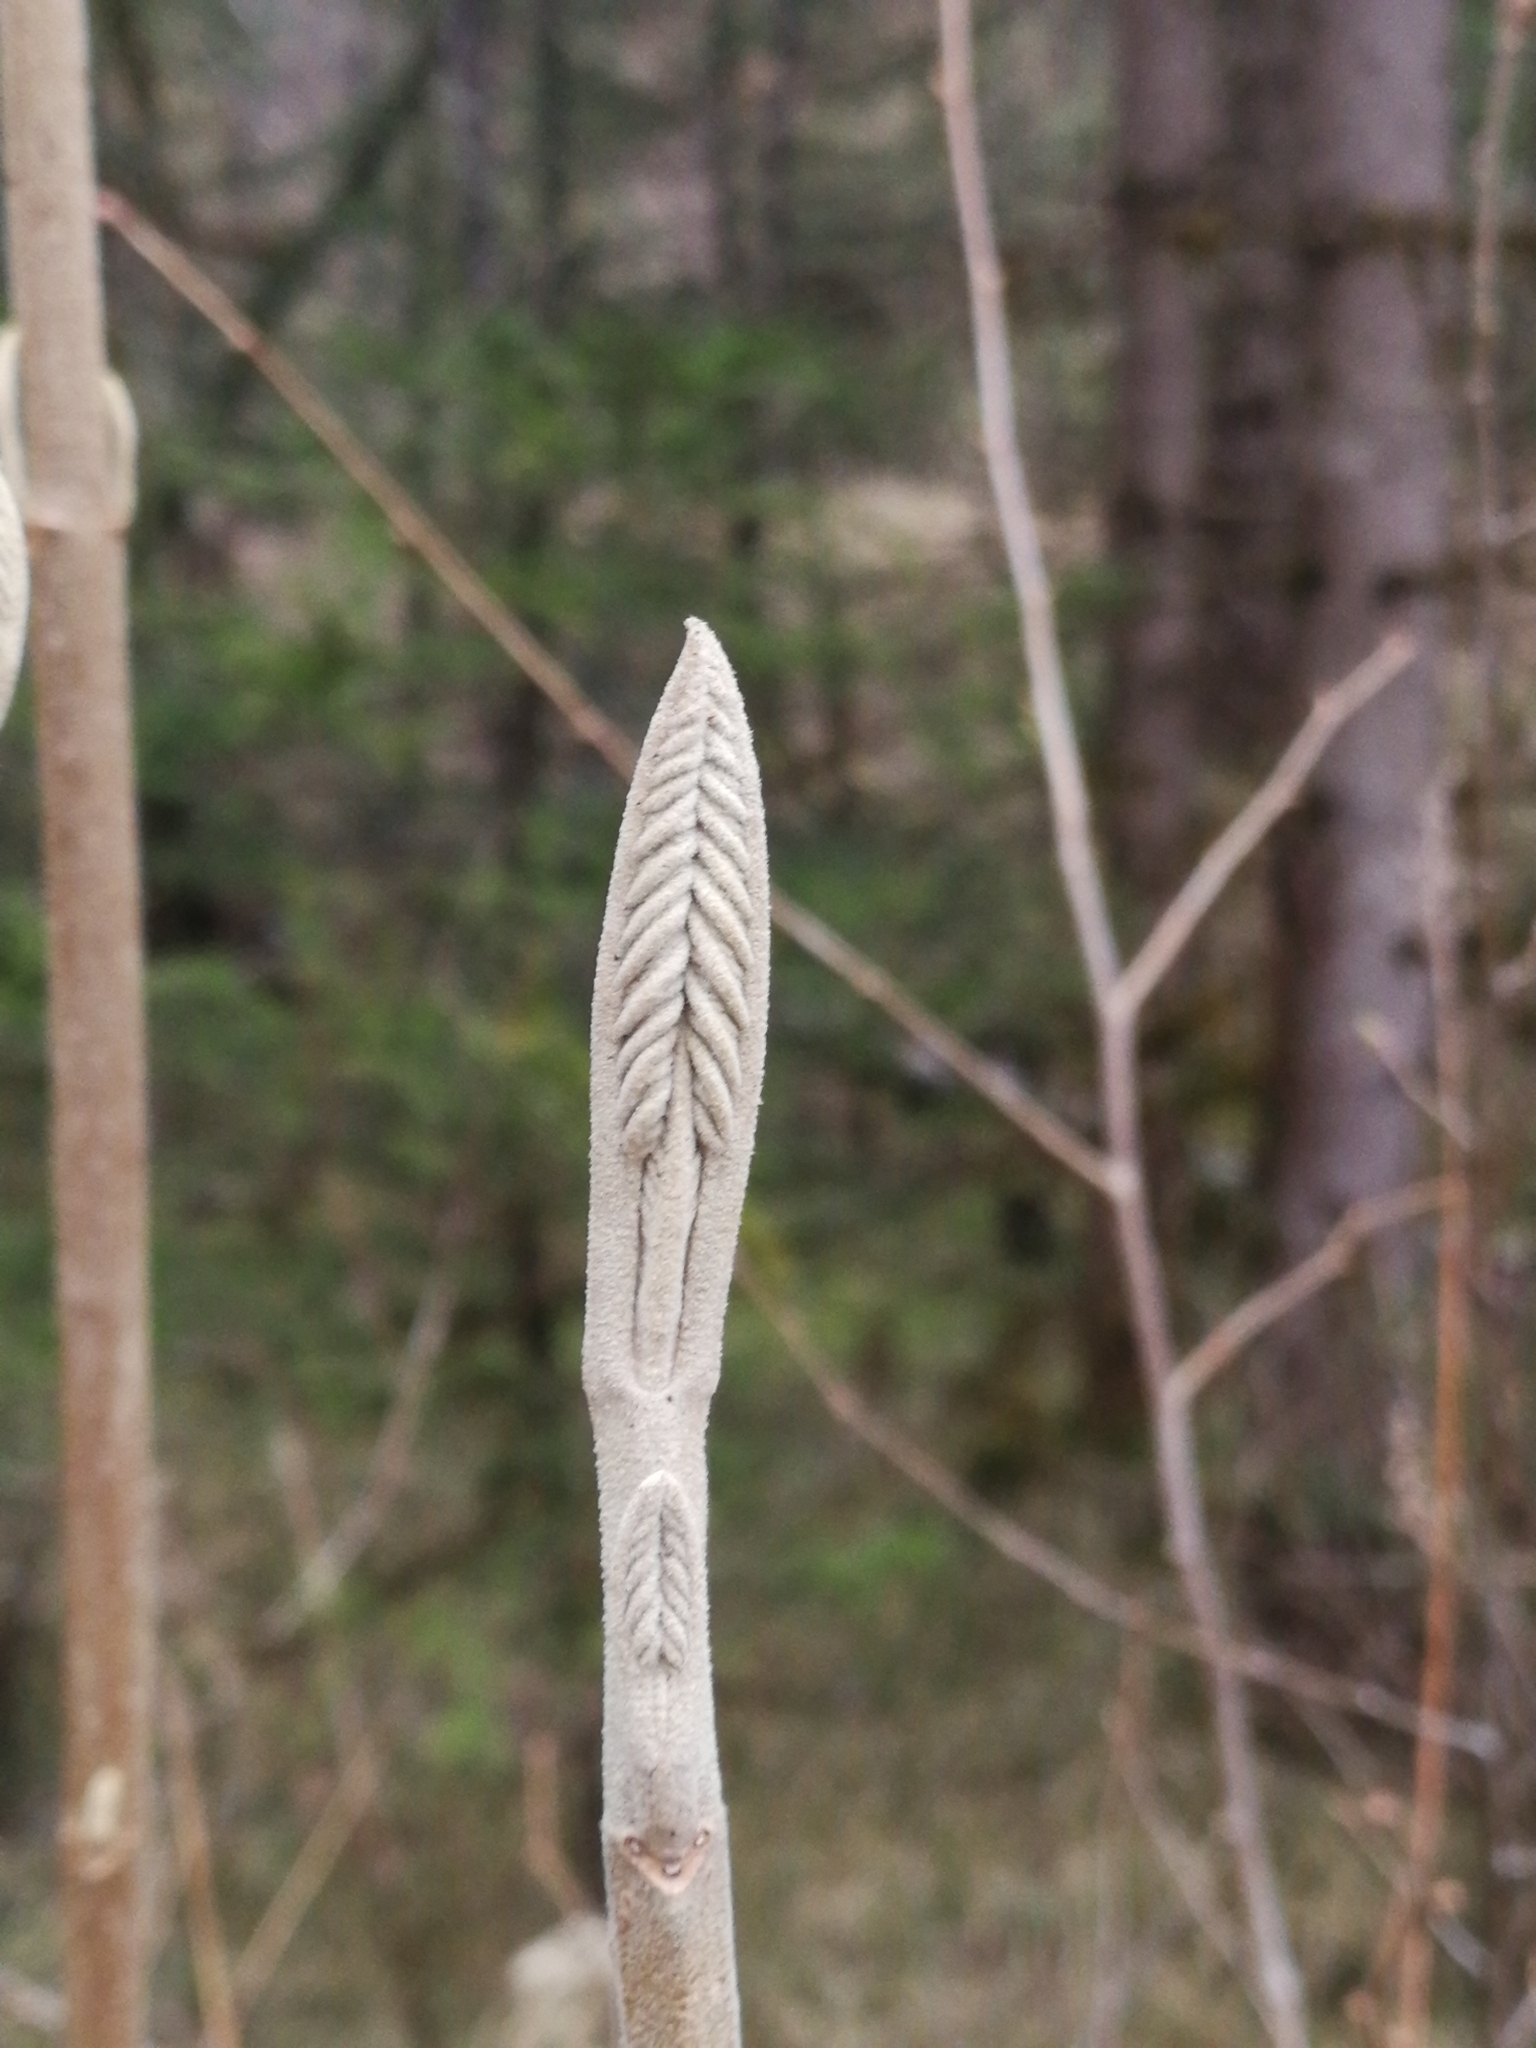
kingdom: Plantae
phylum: Tracheophyta
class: Magnoliopsida
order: Dipsacales
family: Viburnaceae
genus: Viburnum
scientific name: Viburnum lantana
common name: Wayfaring tree
